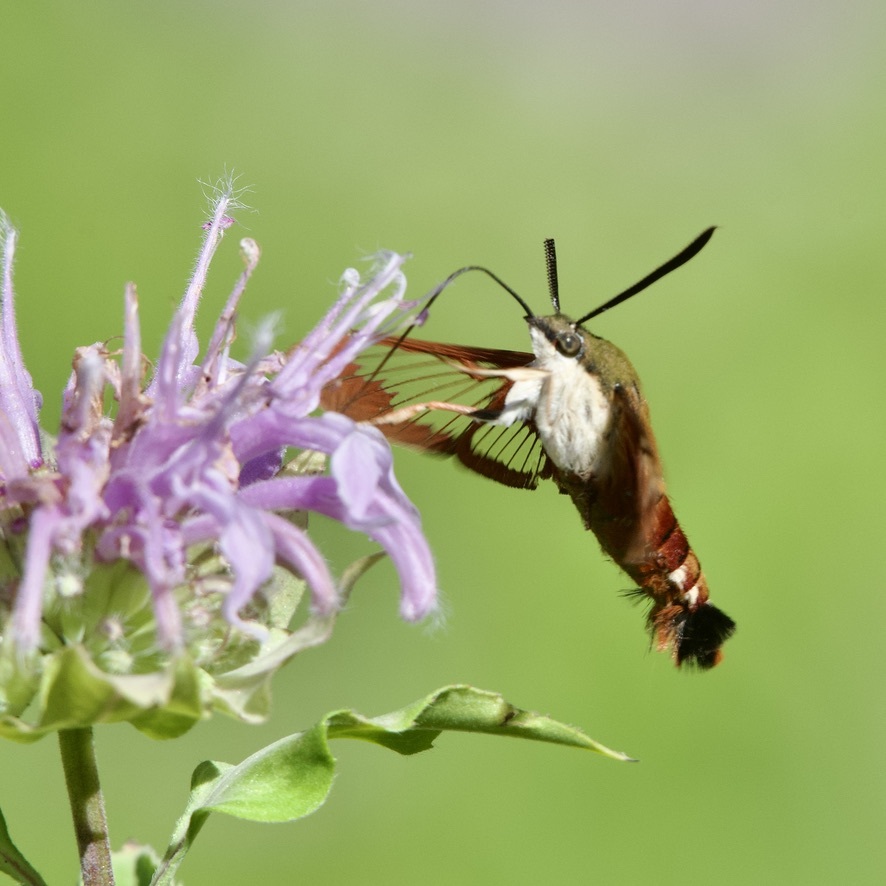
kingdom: Animalia
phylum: Arthropoda
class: Insecta
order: Lepidoptera
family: Sphingidae
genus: Hemaris
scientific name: Hemaris thysbe
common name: Common clear-wing
